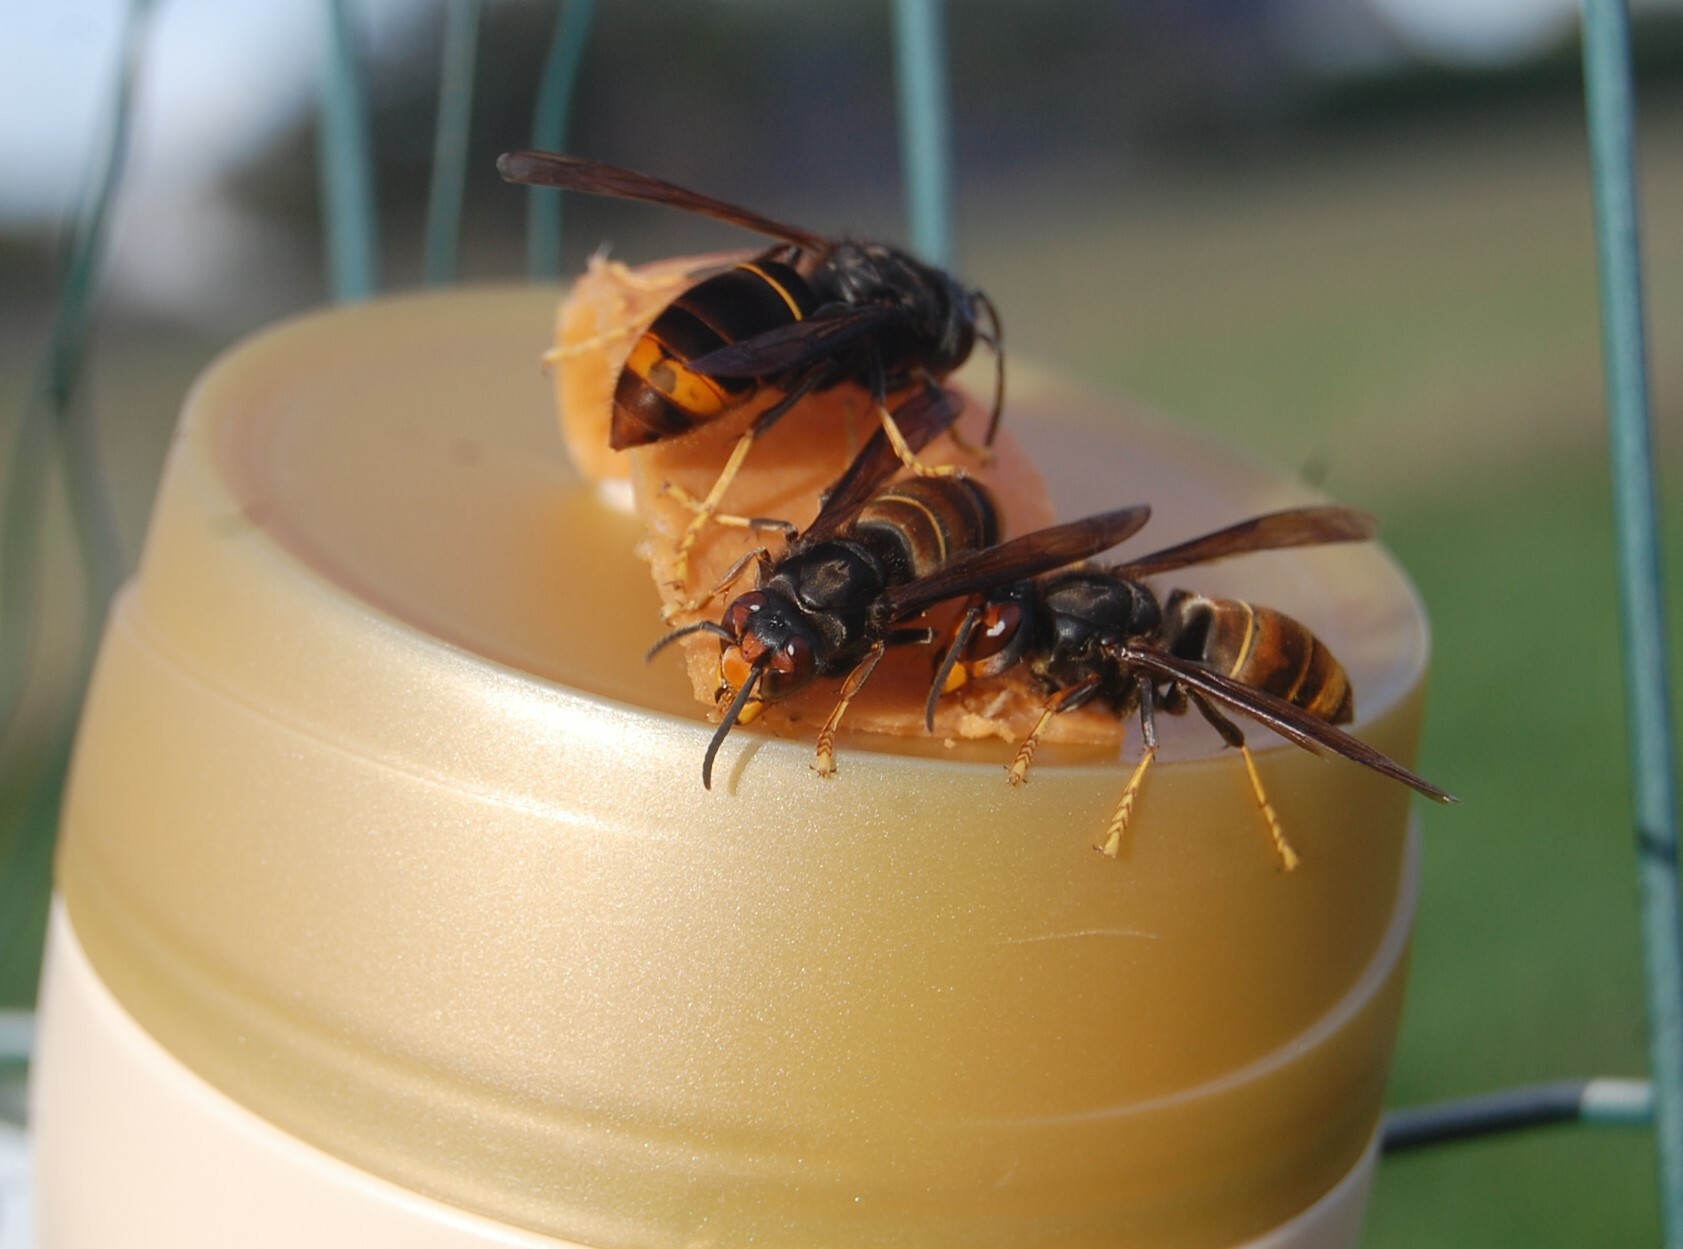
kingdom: Animalia
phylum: Arthropoda
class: Insecta
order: Hymenoptera
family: Vespidae
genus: Vespa
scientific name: Vespa velutina
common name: Asian hornet
